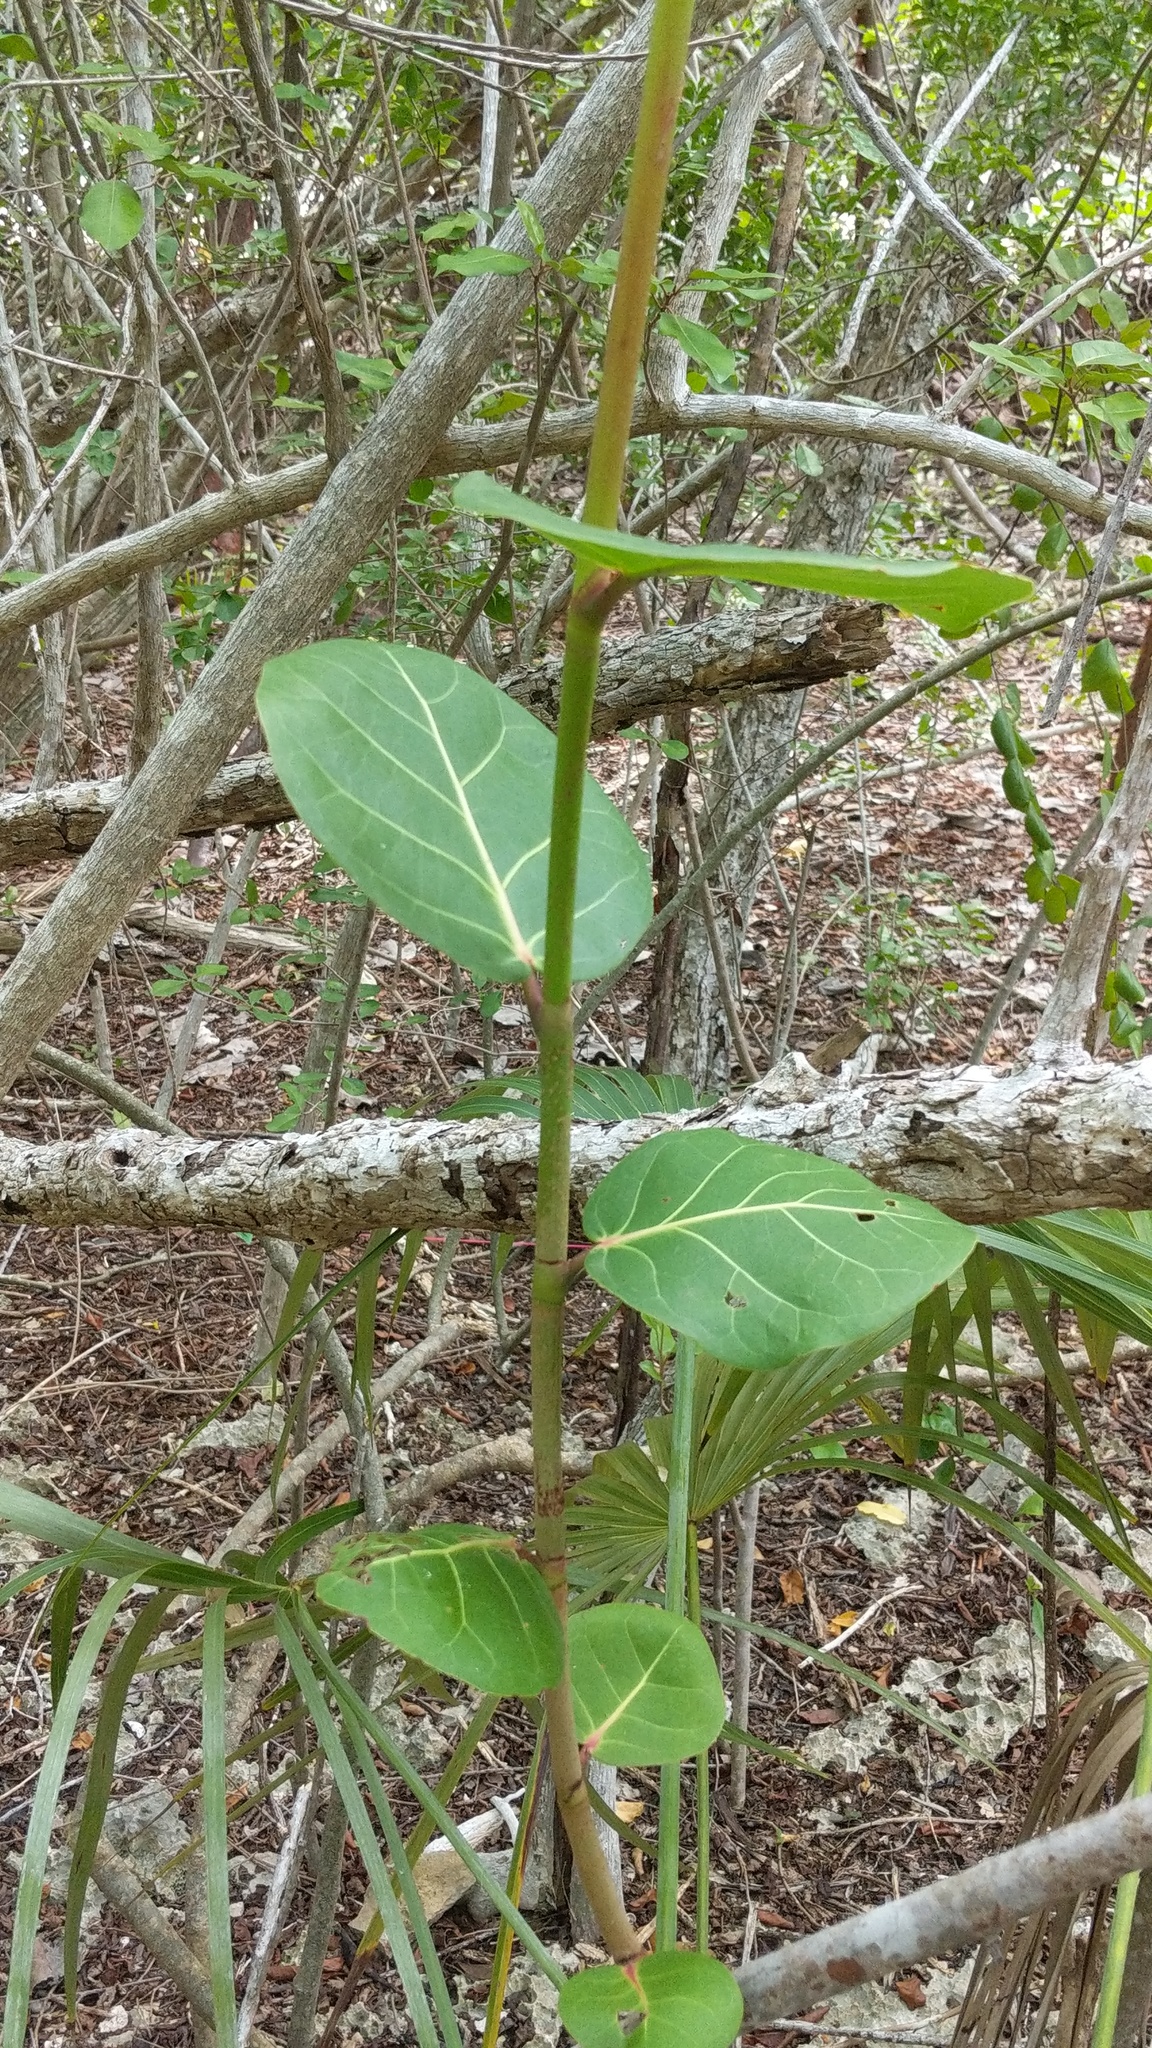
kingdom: Plantae
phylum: Tracheophyta
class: Magnoliopsida
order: Caryophyllales
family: Polygonaceae
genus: Coccoloba
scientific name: Coccoloba uvifera
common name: Seagrape
